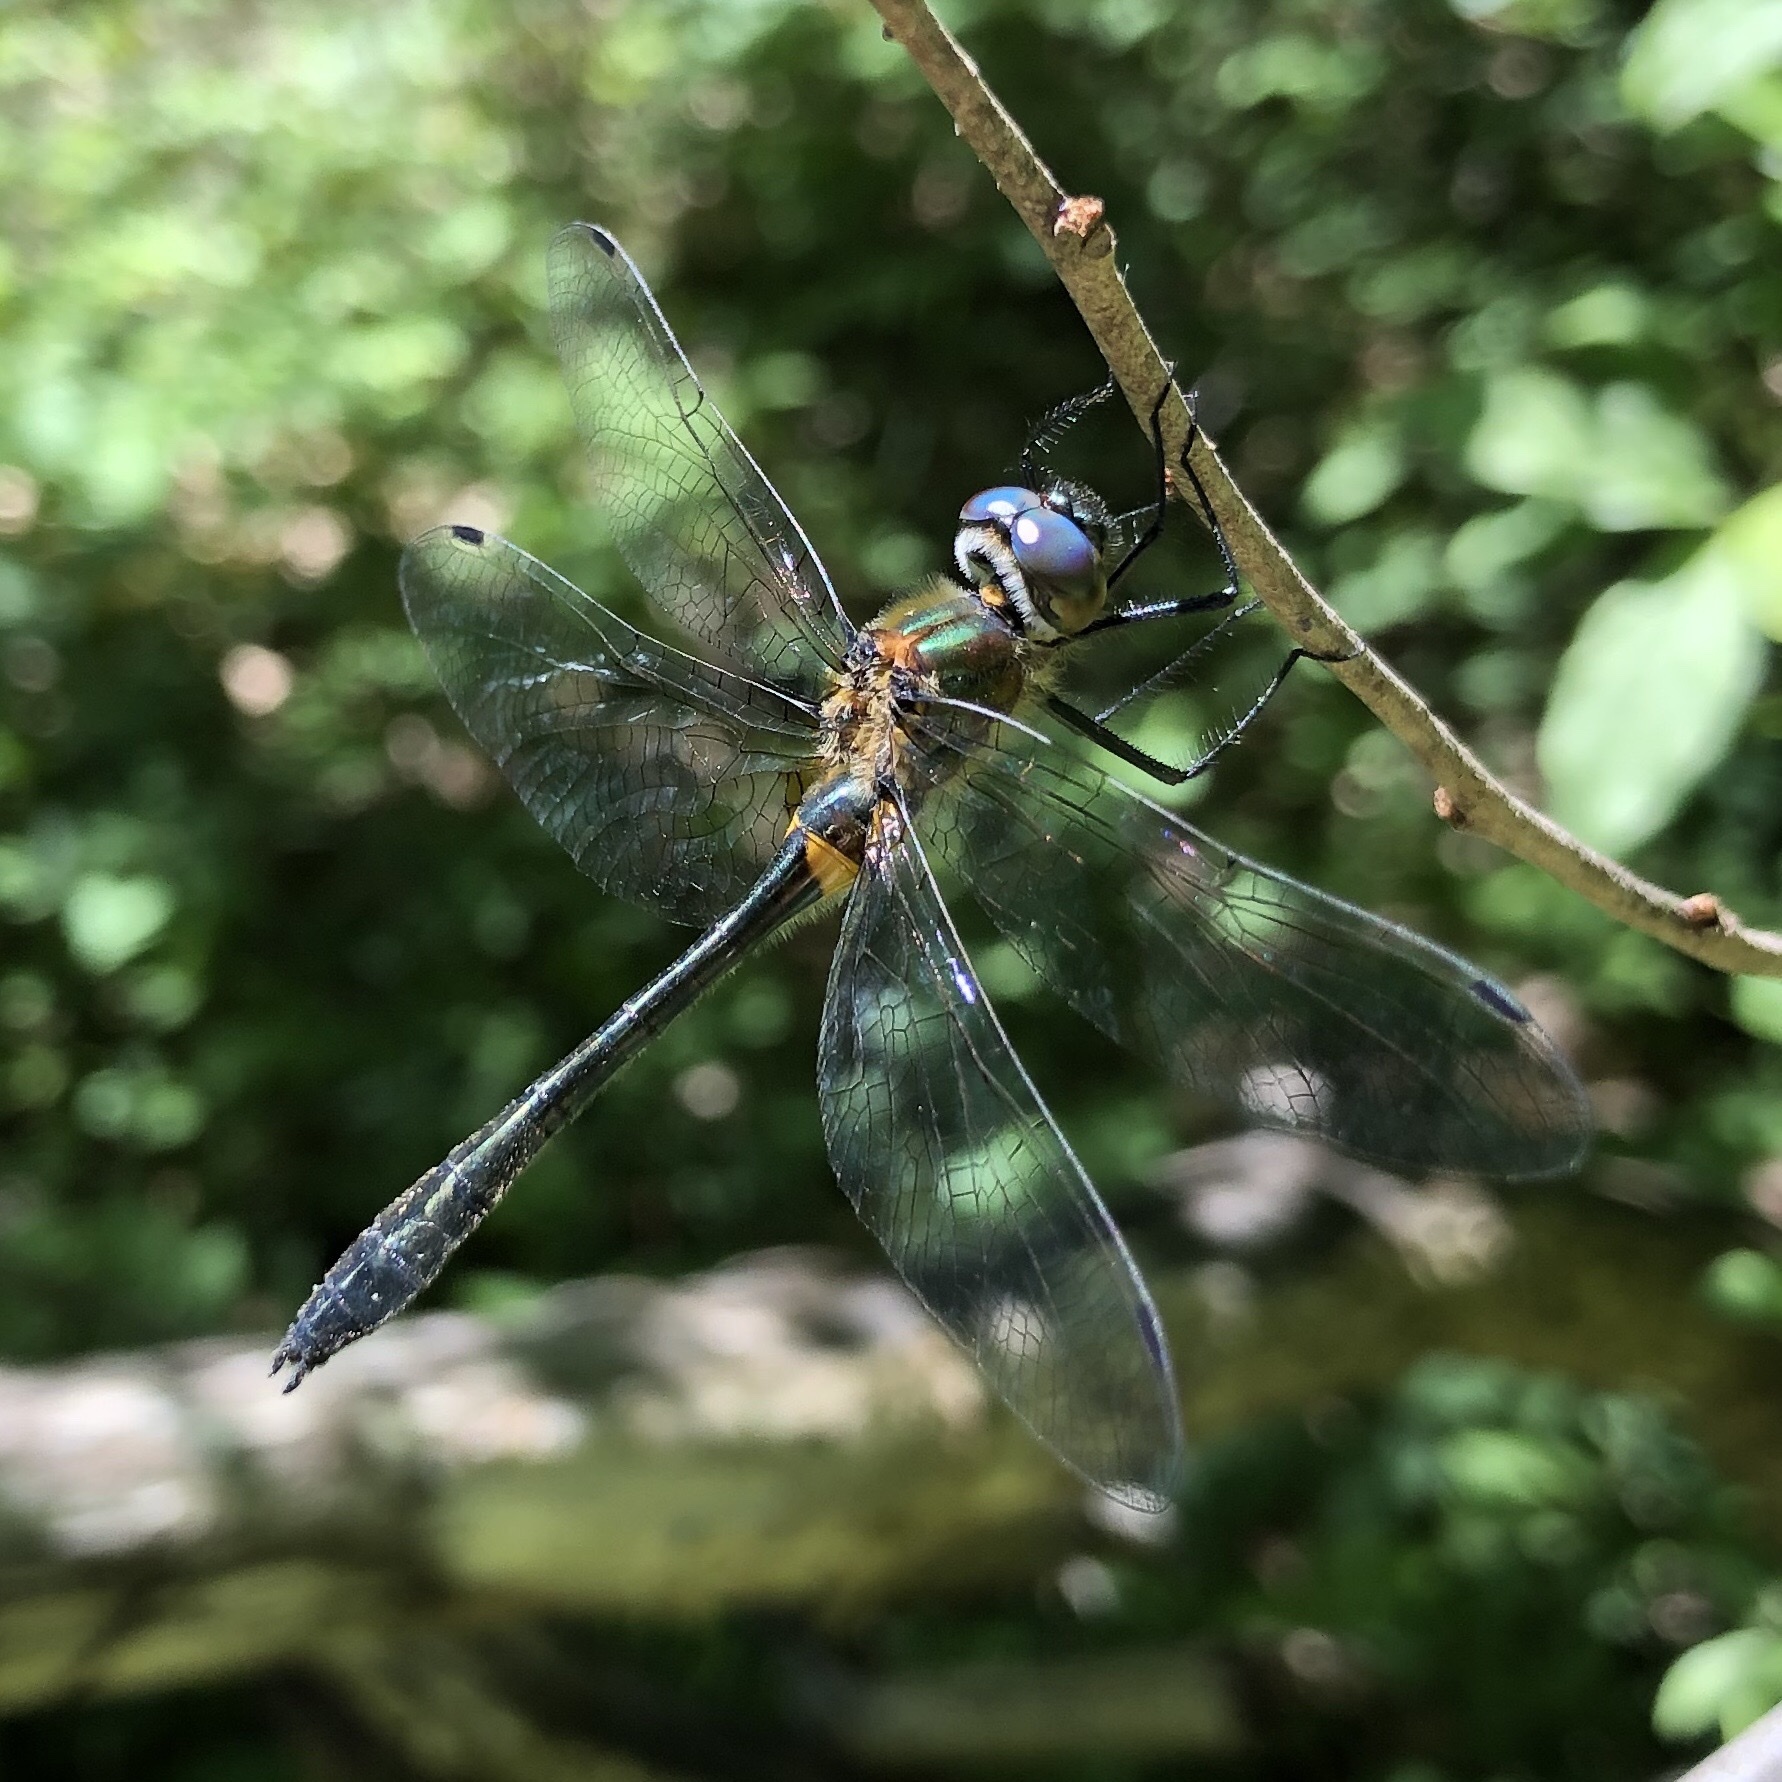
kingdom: Animalia
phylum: Arthropoda
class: Insecta
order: Odonata
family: Corduliidae
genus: Dorocordulia
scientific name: Dorocordulia libera
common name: Racket-tailed emerald
